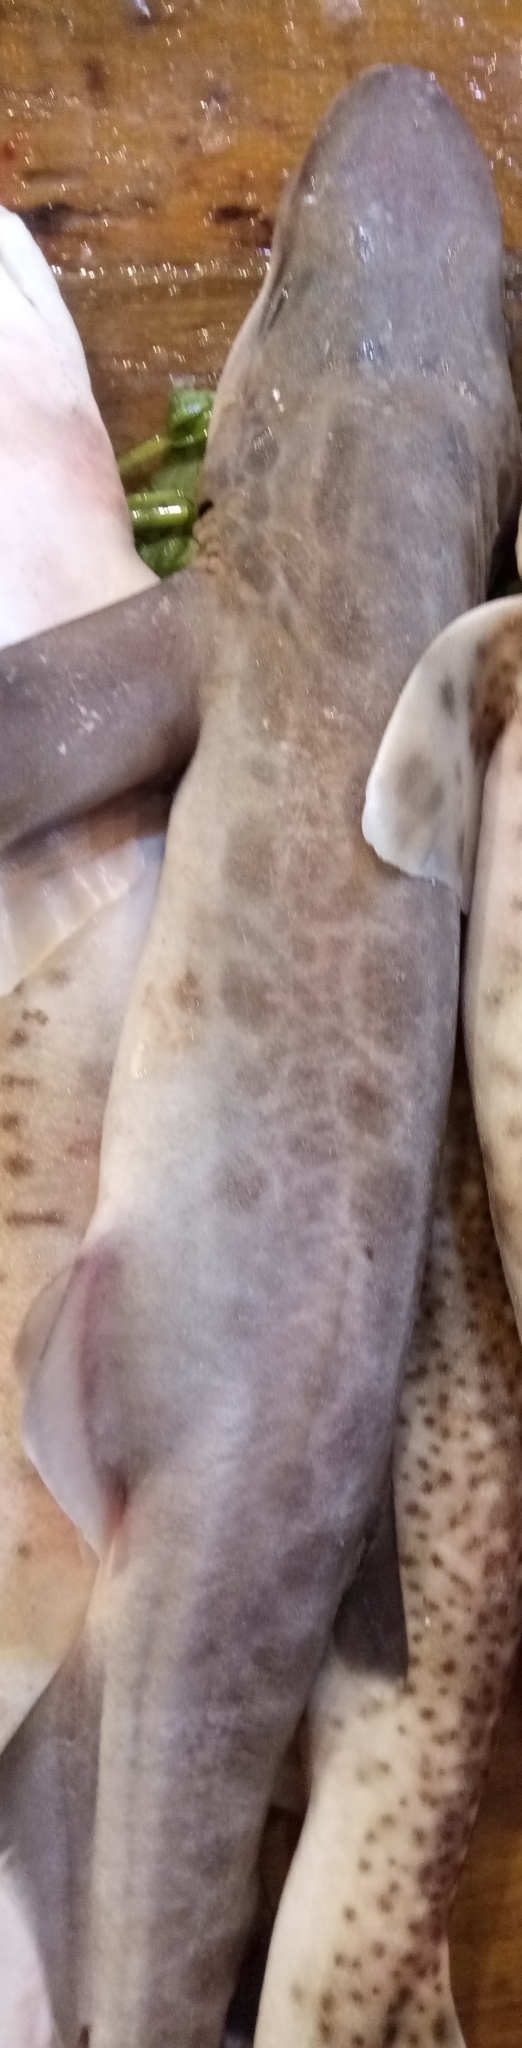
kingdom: Animalia
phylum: Chordata
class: Elasmobranchii
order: Carcharhiniformes
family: Scyliorhinidae
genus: Galeus
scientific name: Galeus melastomus
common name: Black-mouthed dogfish
